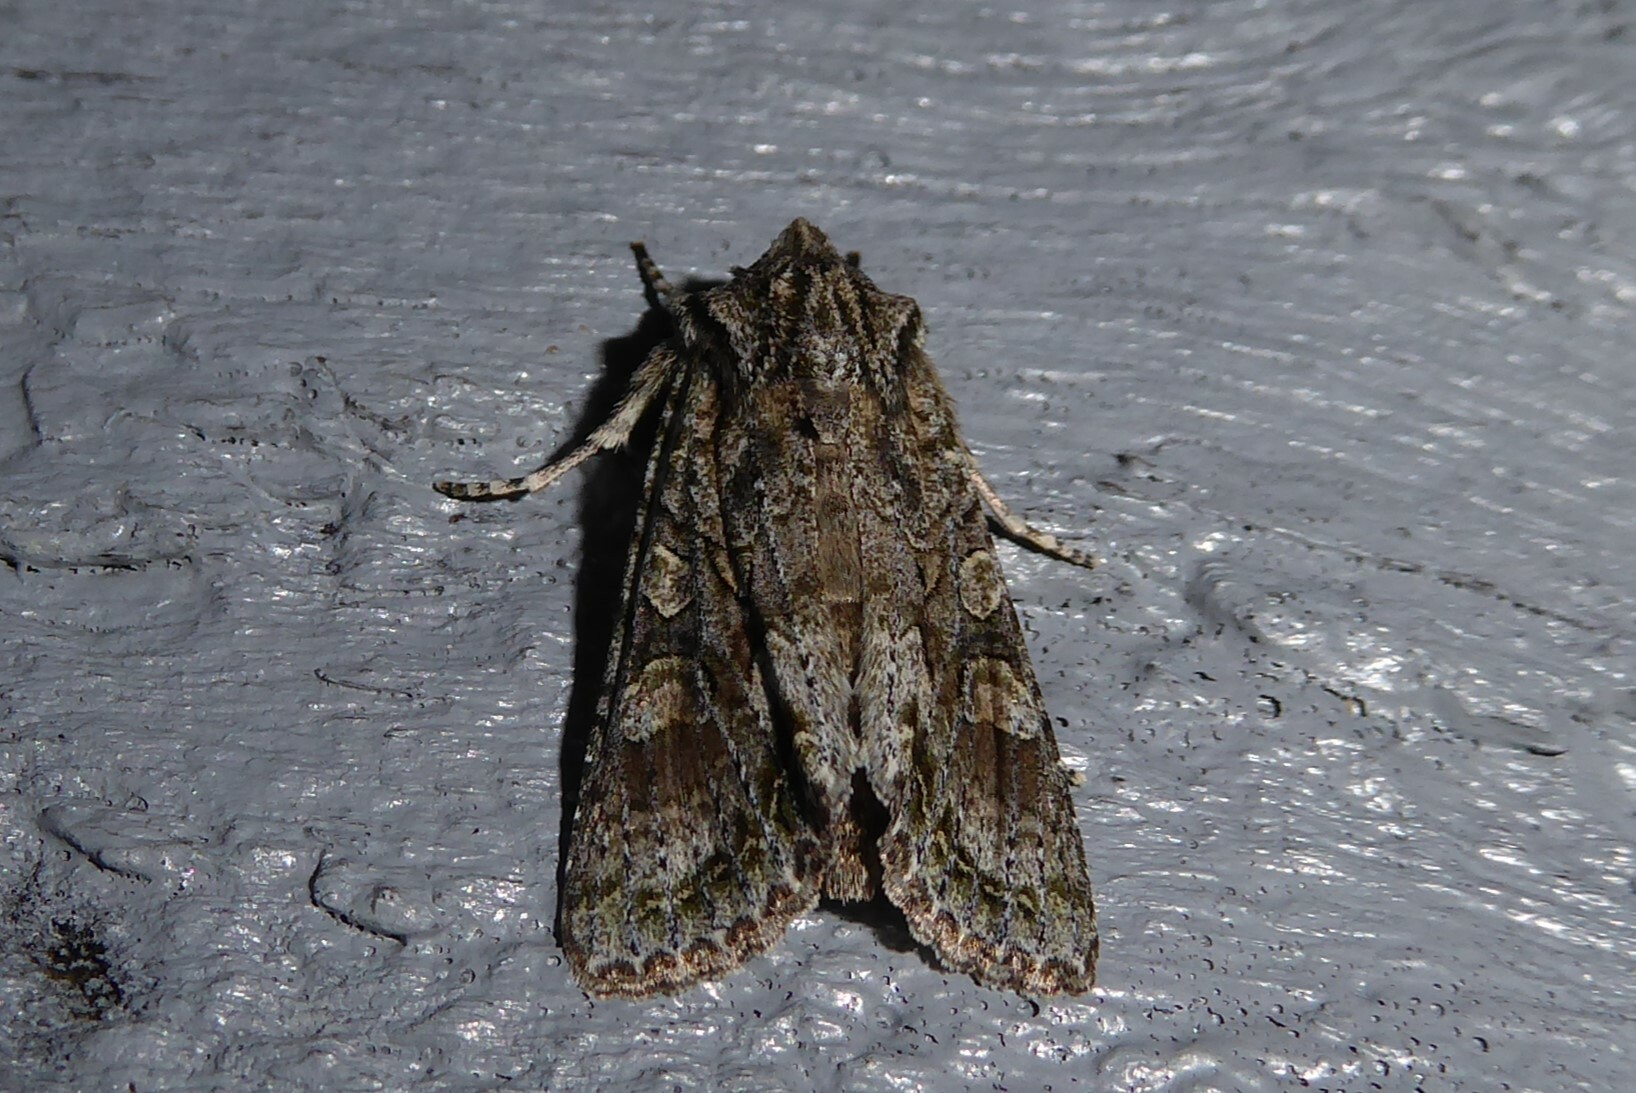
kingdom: Animalia
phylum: Arthropoda
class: Insecta
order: Lepidoptera
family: Noctuidae
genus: Ichneutica
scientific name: Ichneutica mutans
